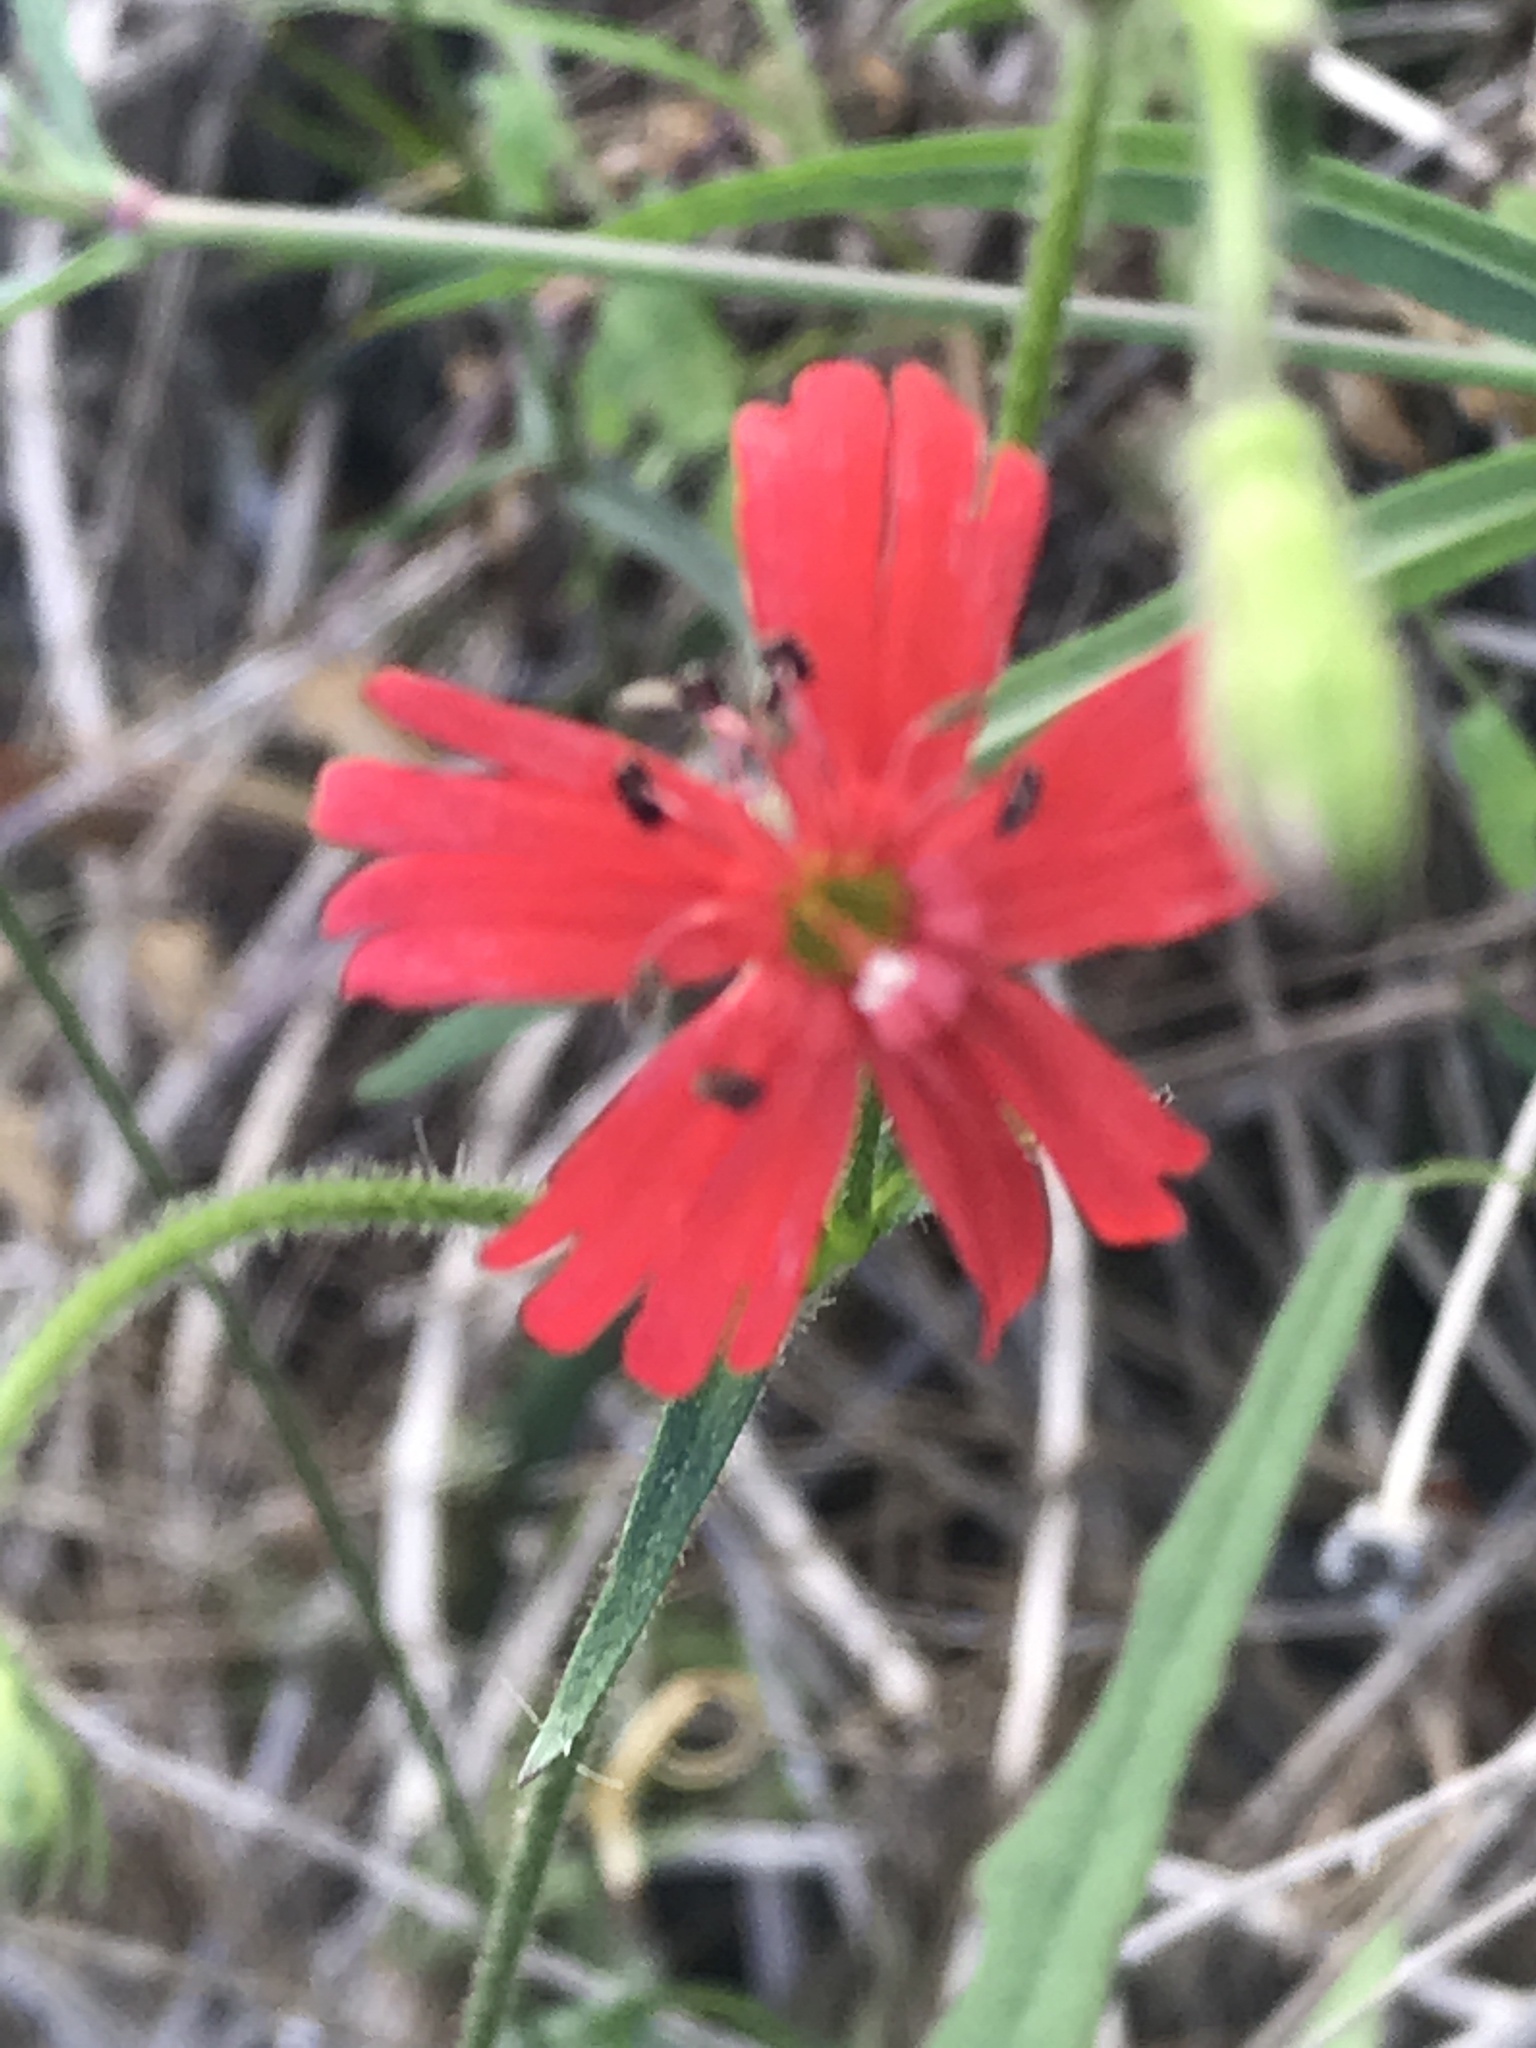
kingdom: Plantae
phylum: Tracheophyta
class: Magnoliopsida
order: Caryophyllales
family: Caryophyllaceae
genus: Silene
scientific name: Silene laciniata
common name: Indian-pink
